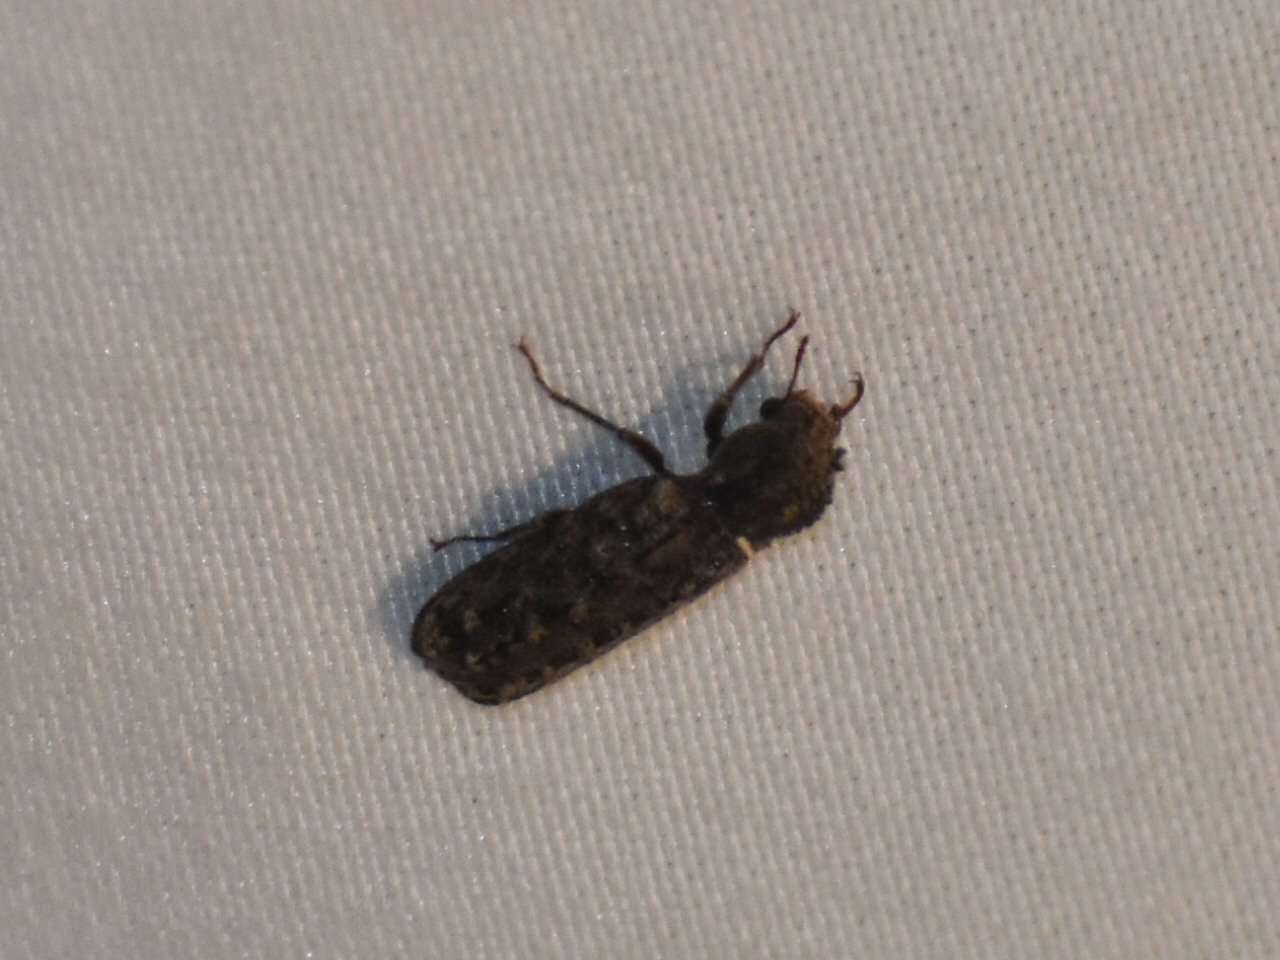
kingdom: Animalia
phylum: Arthropoda
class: Insecta
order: Coleoptera
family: Bostrichidae
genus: Lichenophanes
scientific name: Lichenophanes bicornis
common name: Two-horned powder-post beetle
